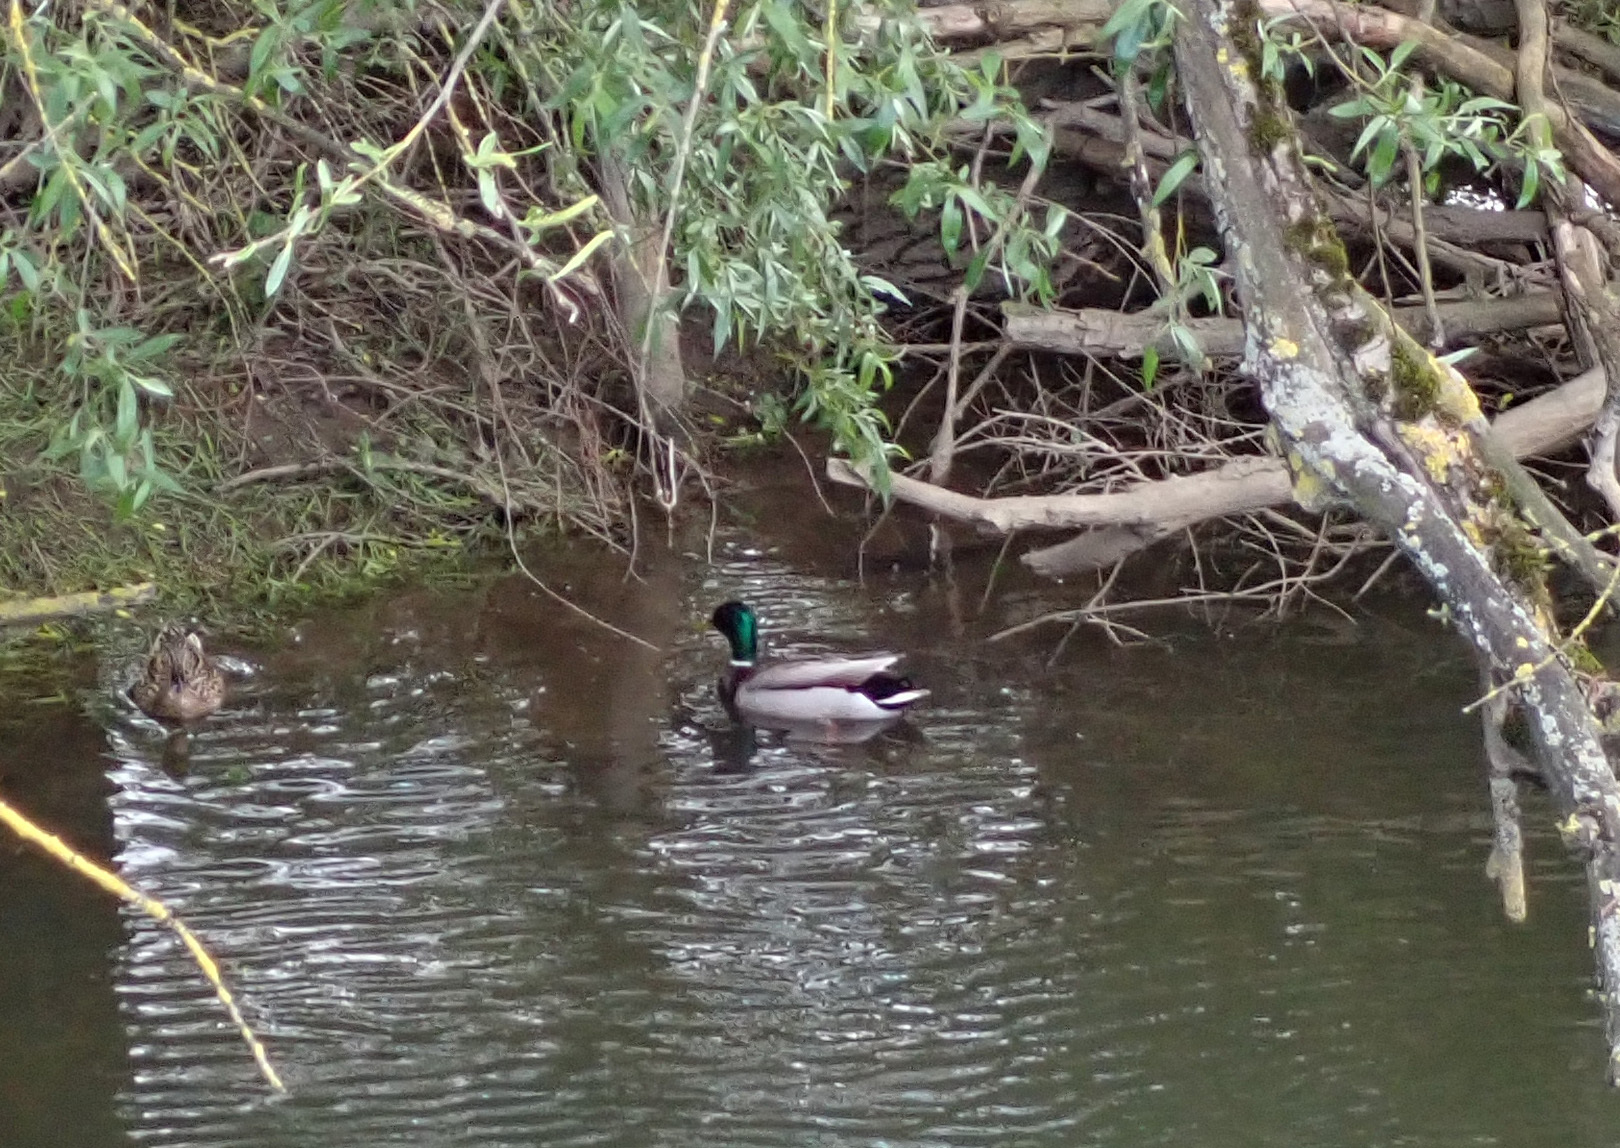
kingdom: Animalia
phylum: Chordata
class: Aves
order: Anseriformes
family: Anatidae
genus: Anas
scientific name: Anas platyrhynchos
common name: Mallard
